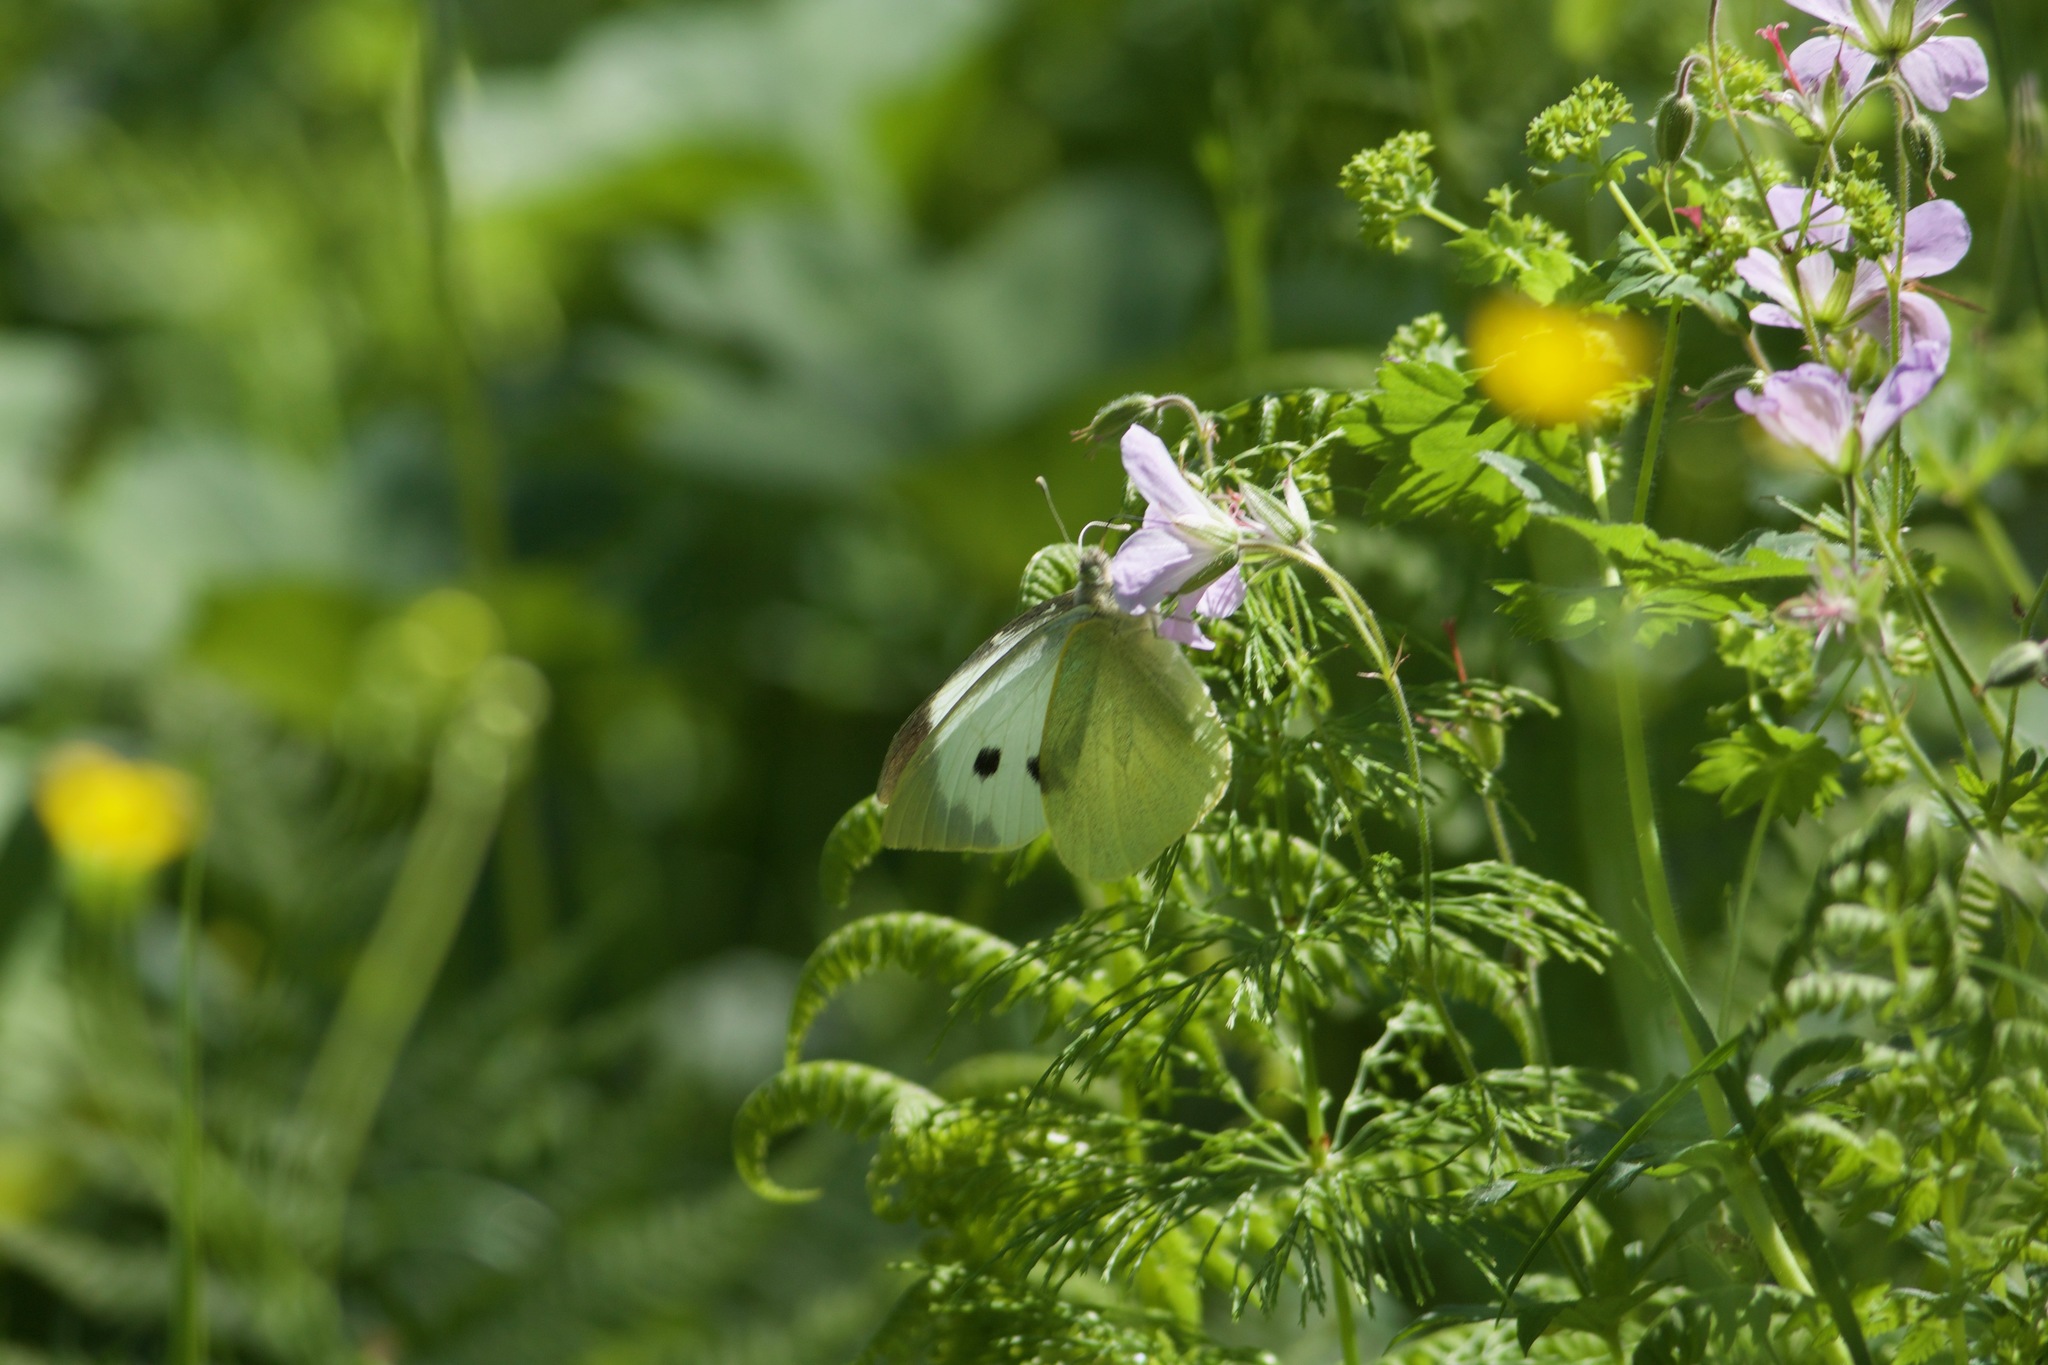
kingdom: Animalia
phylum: Arthropoda
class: Insecta
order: Lepidoptera
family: Pieridae
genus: Pieris
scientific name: Pieris brassicae
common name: Large white
